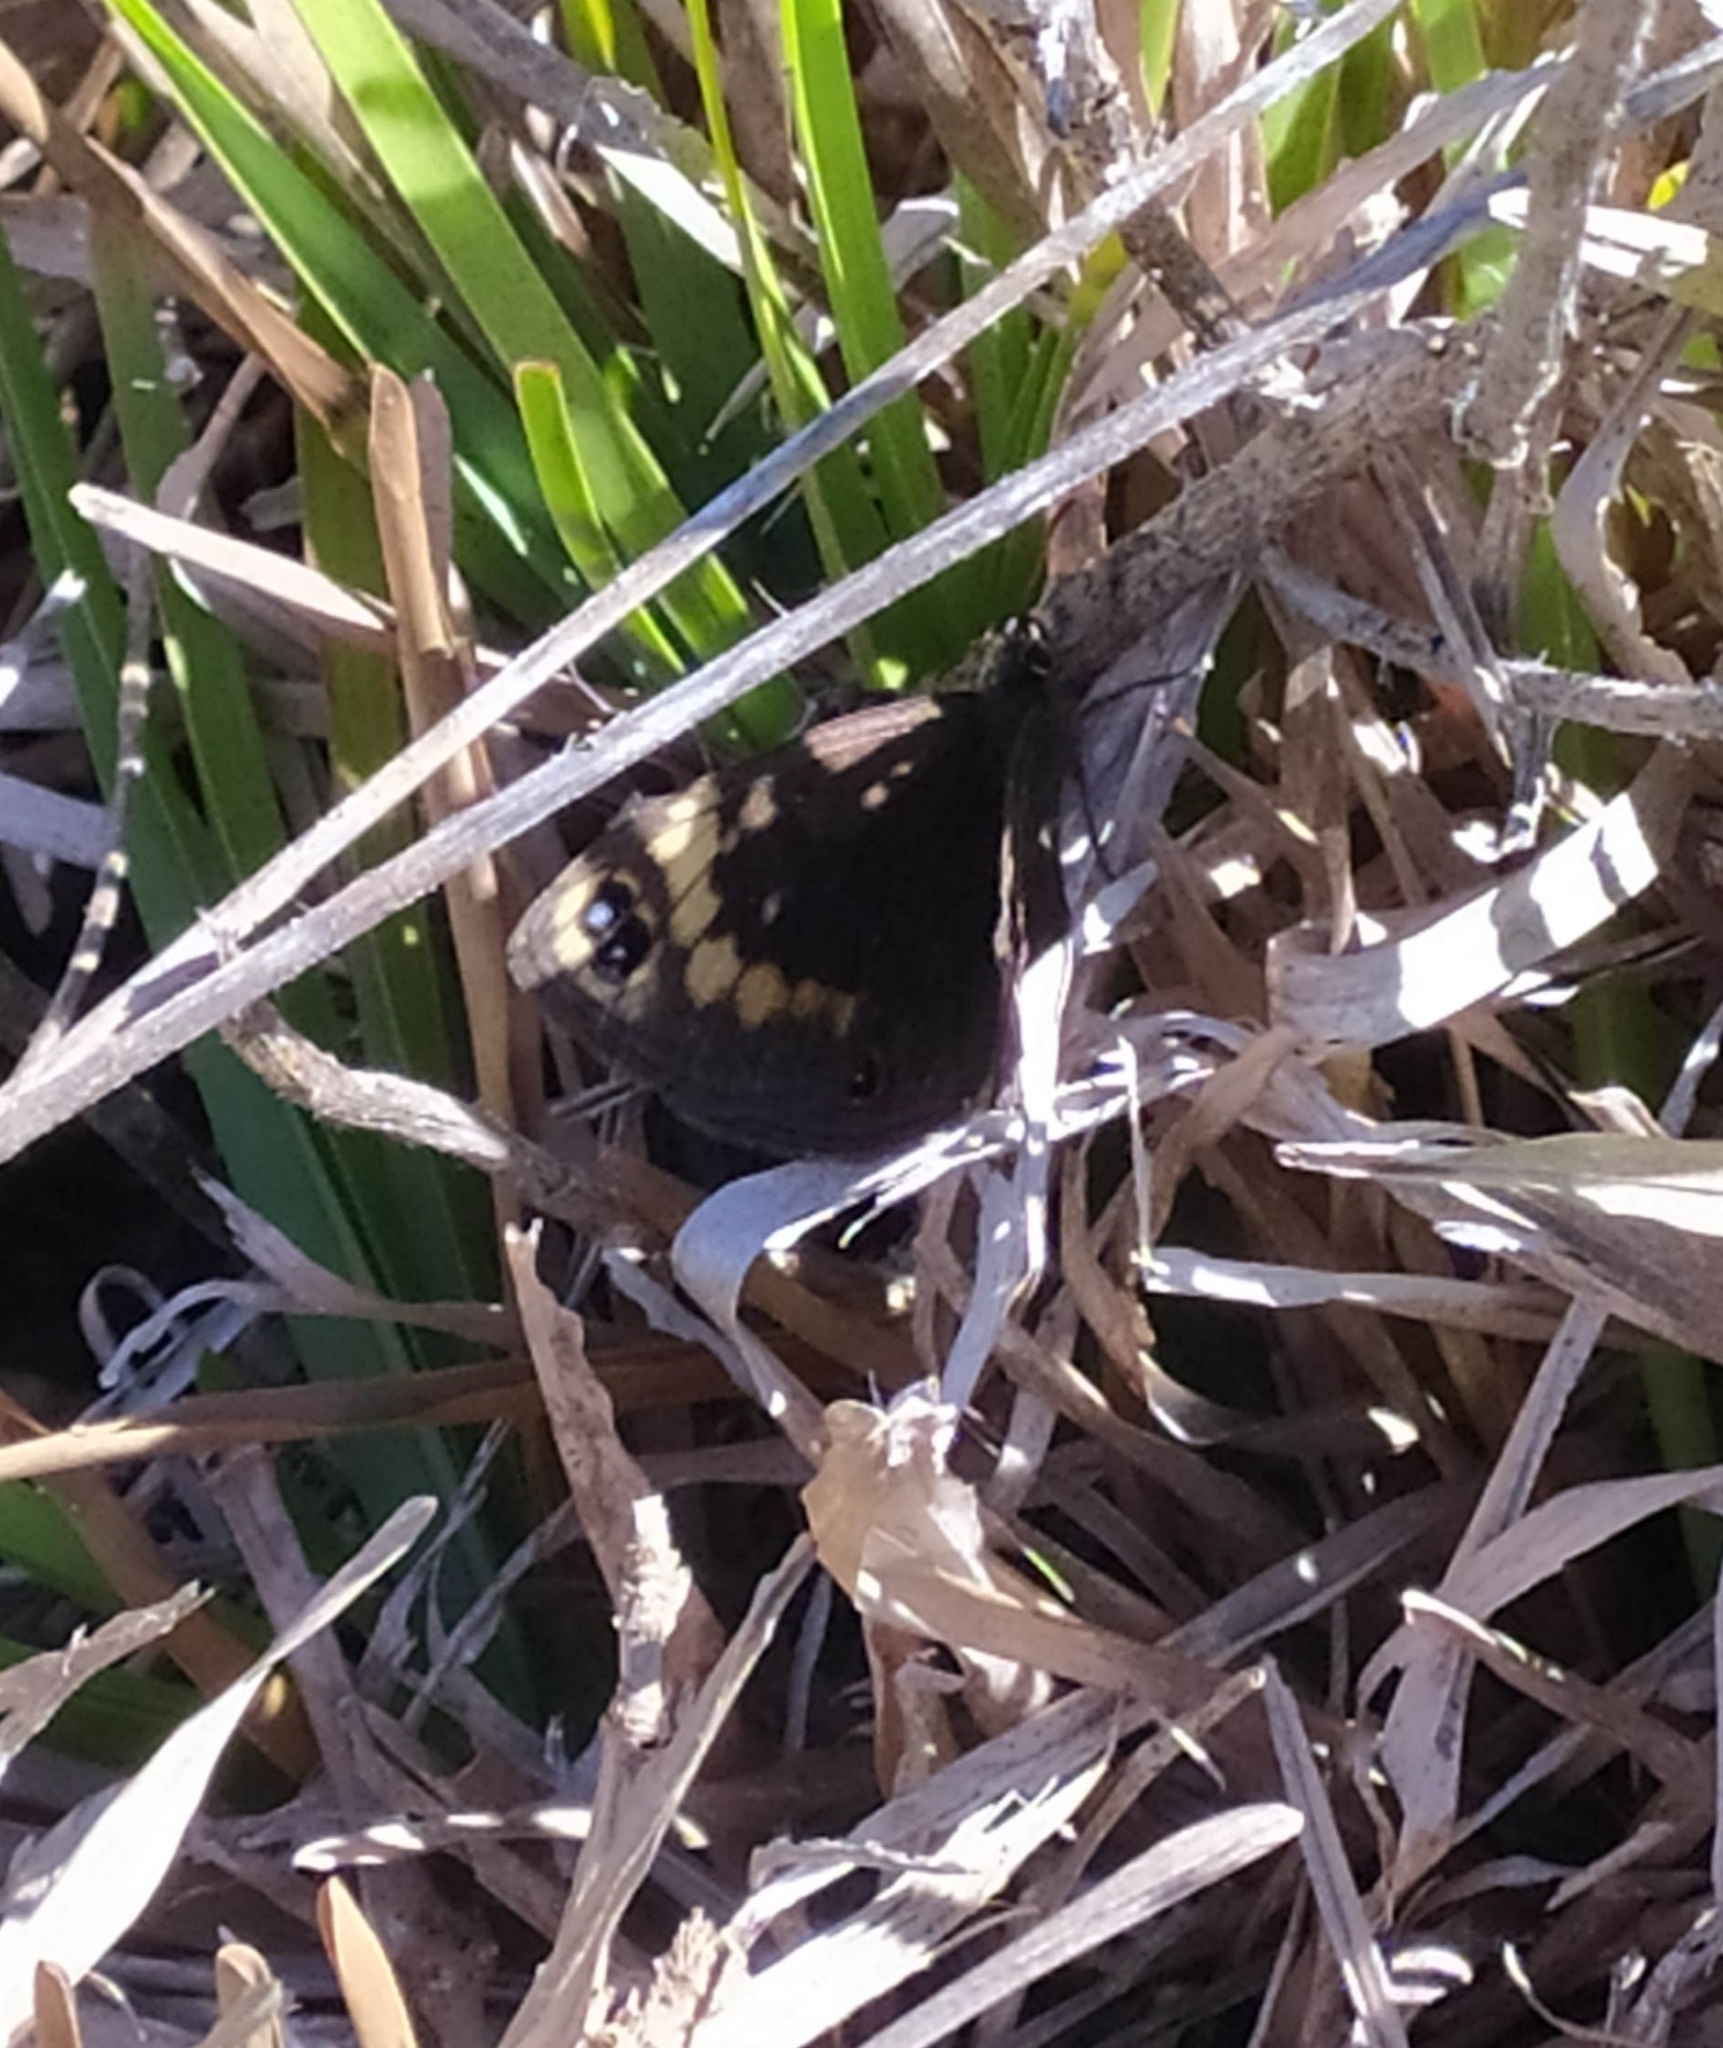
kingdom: Animalia
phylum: Arthropoda
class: Insecta
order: Lepidoptera
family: Nymphalidae
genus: Dira
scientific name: Dira clytus
